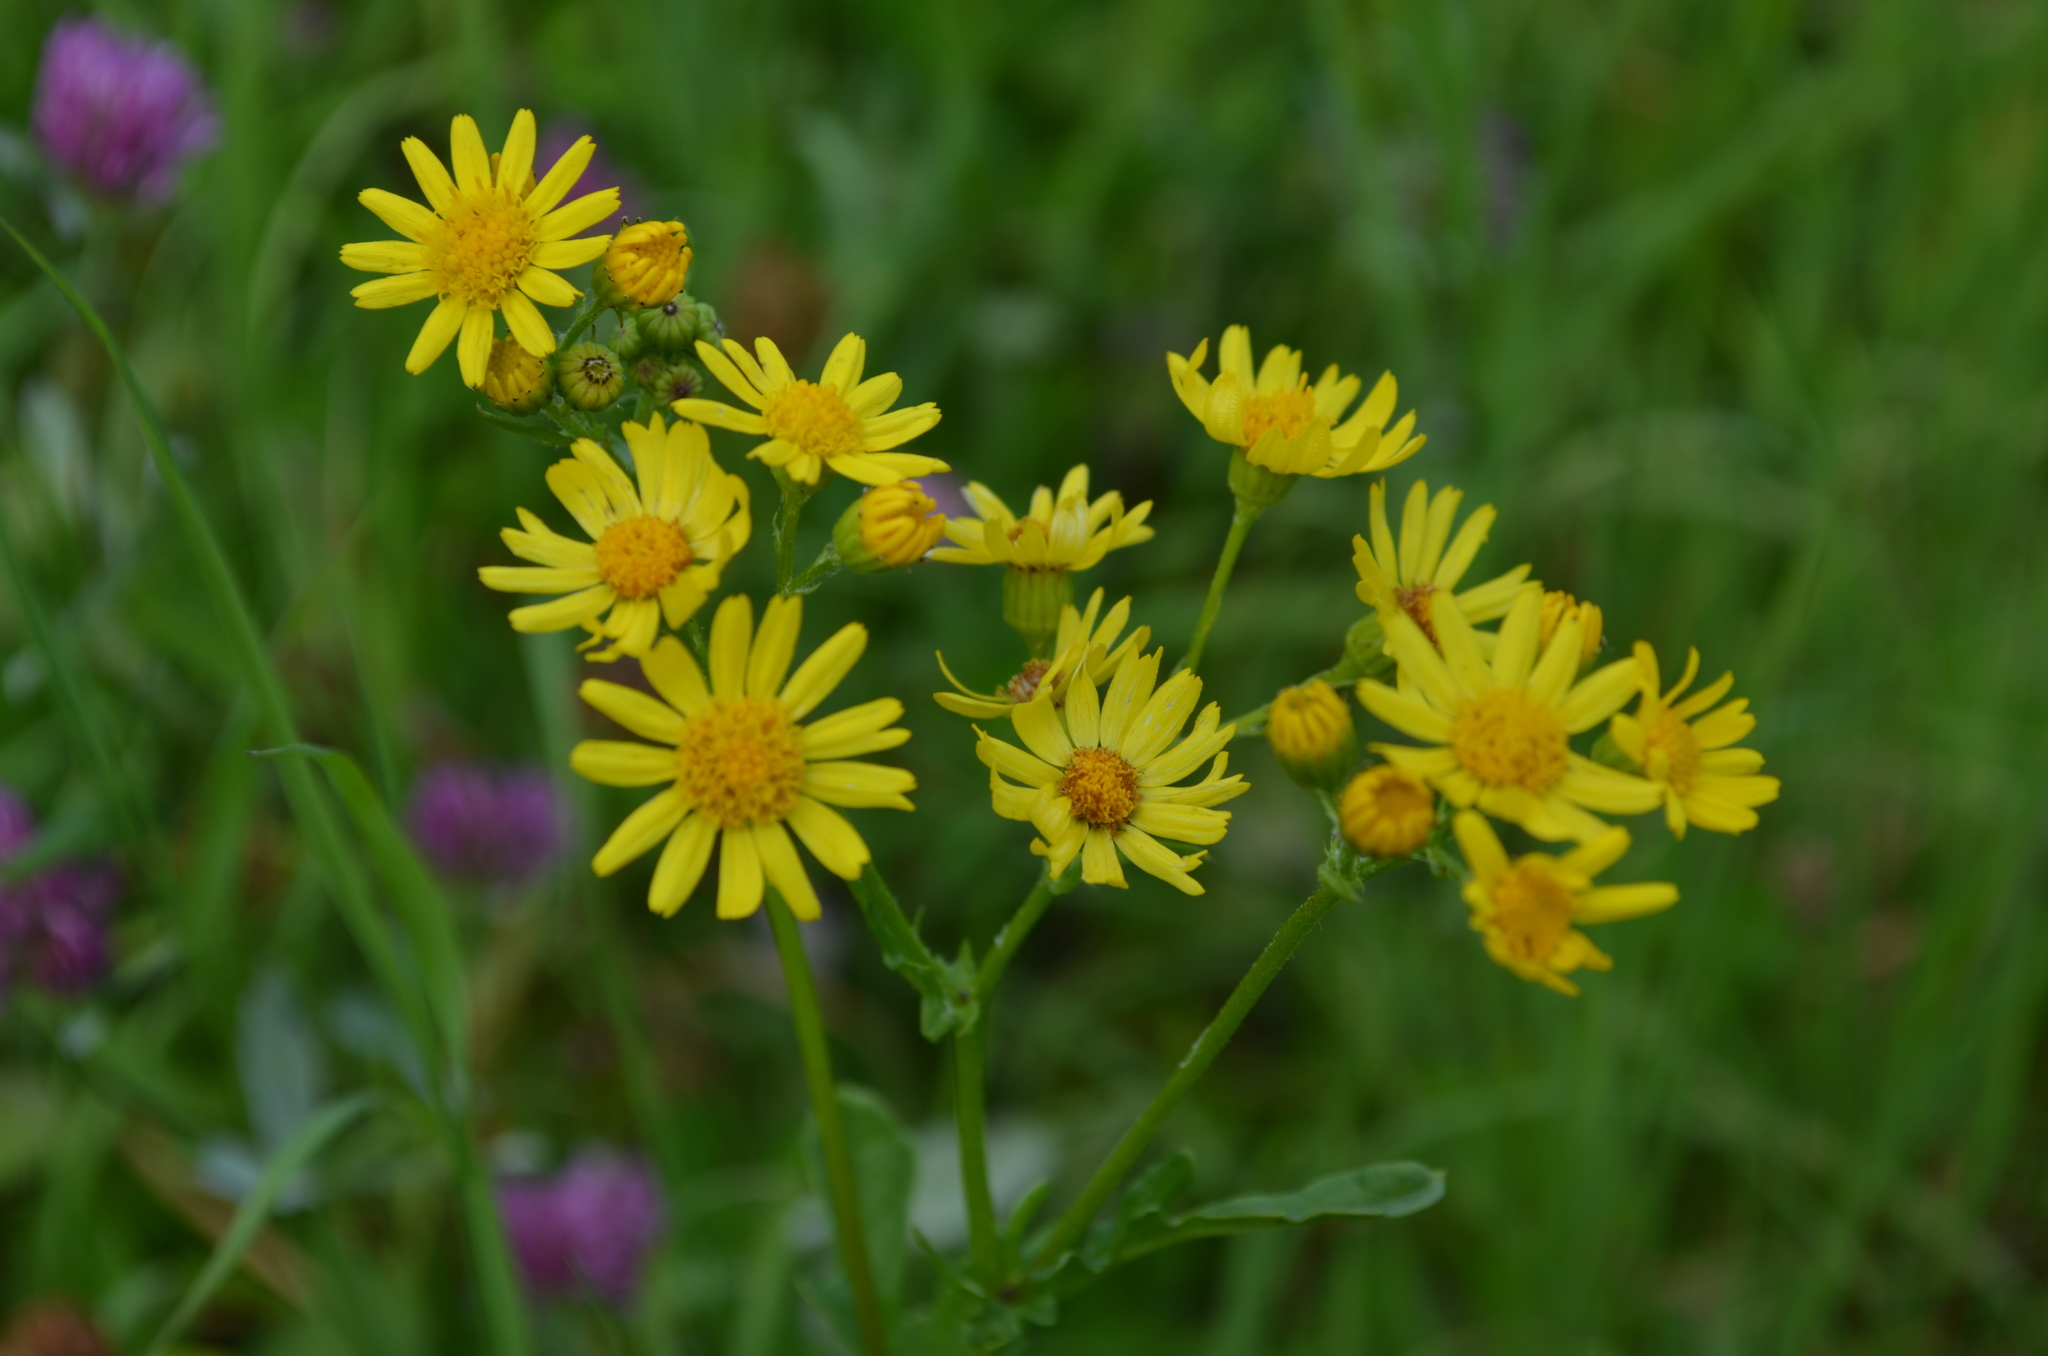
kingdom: Plantae
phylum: Tracheophyta
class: Magnoliopsida
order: Asterales
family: Asteraceae
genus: Jacobaea
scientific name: Jacobaea aquatica
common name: Water ragwort
